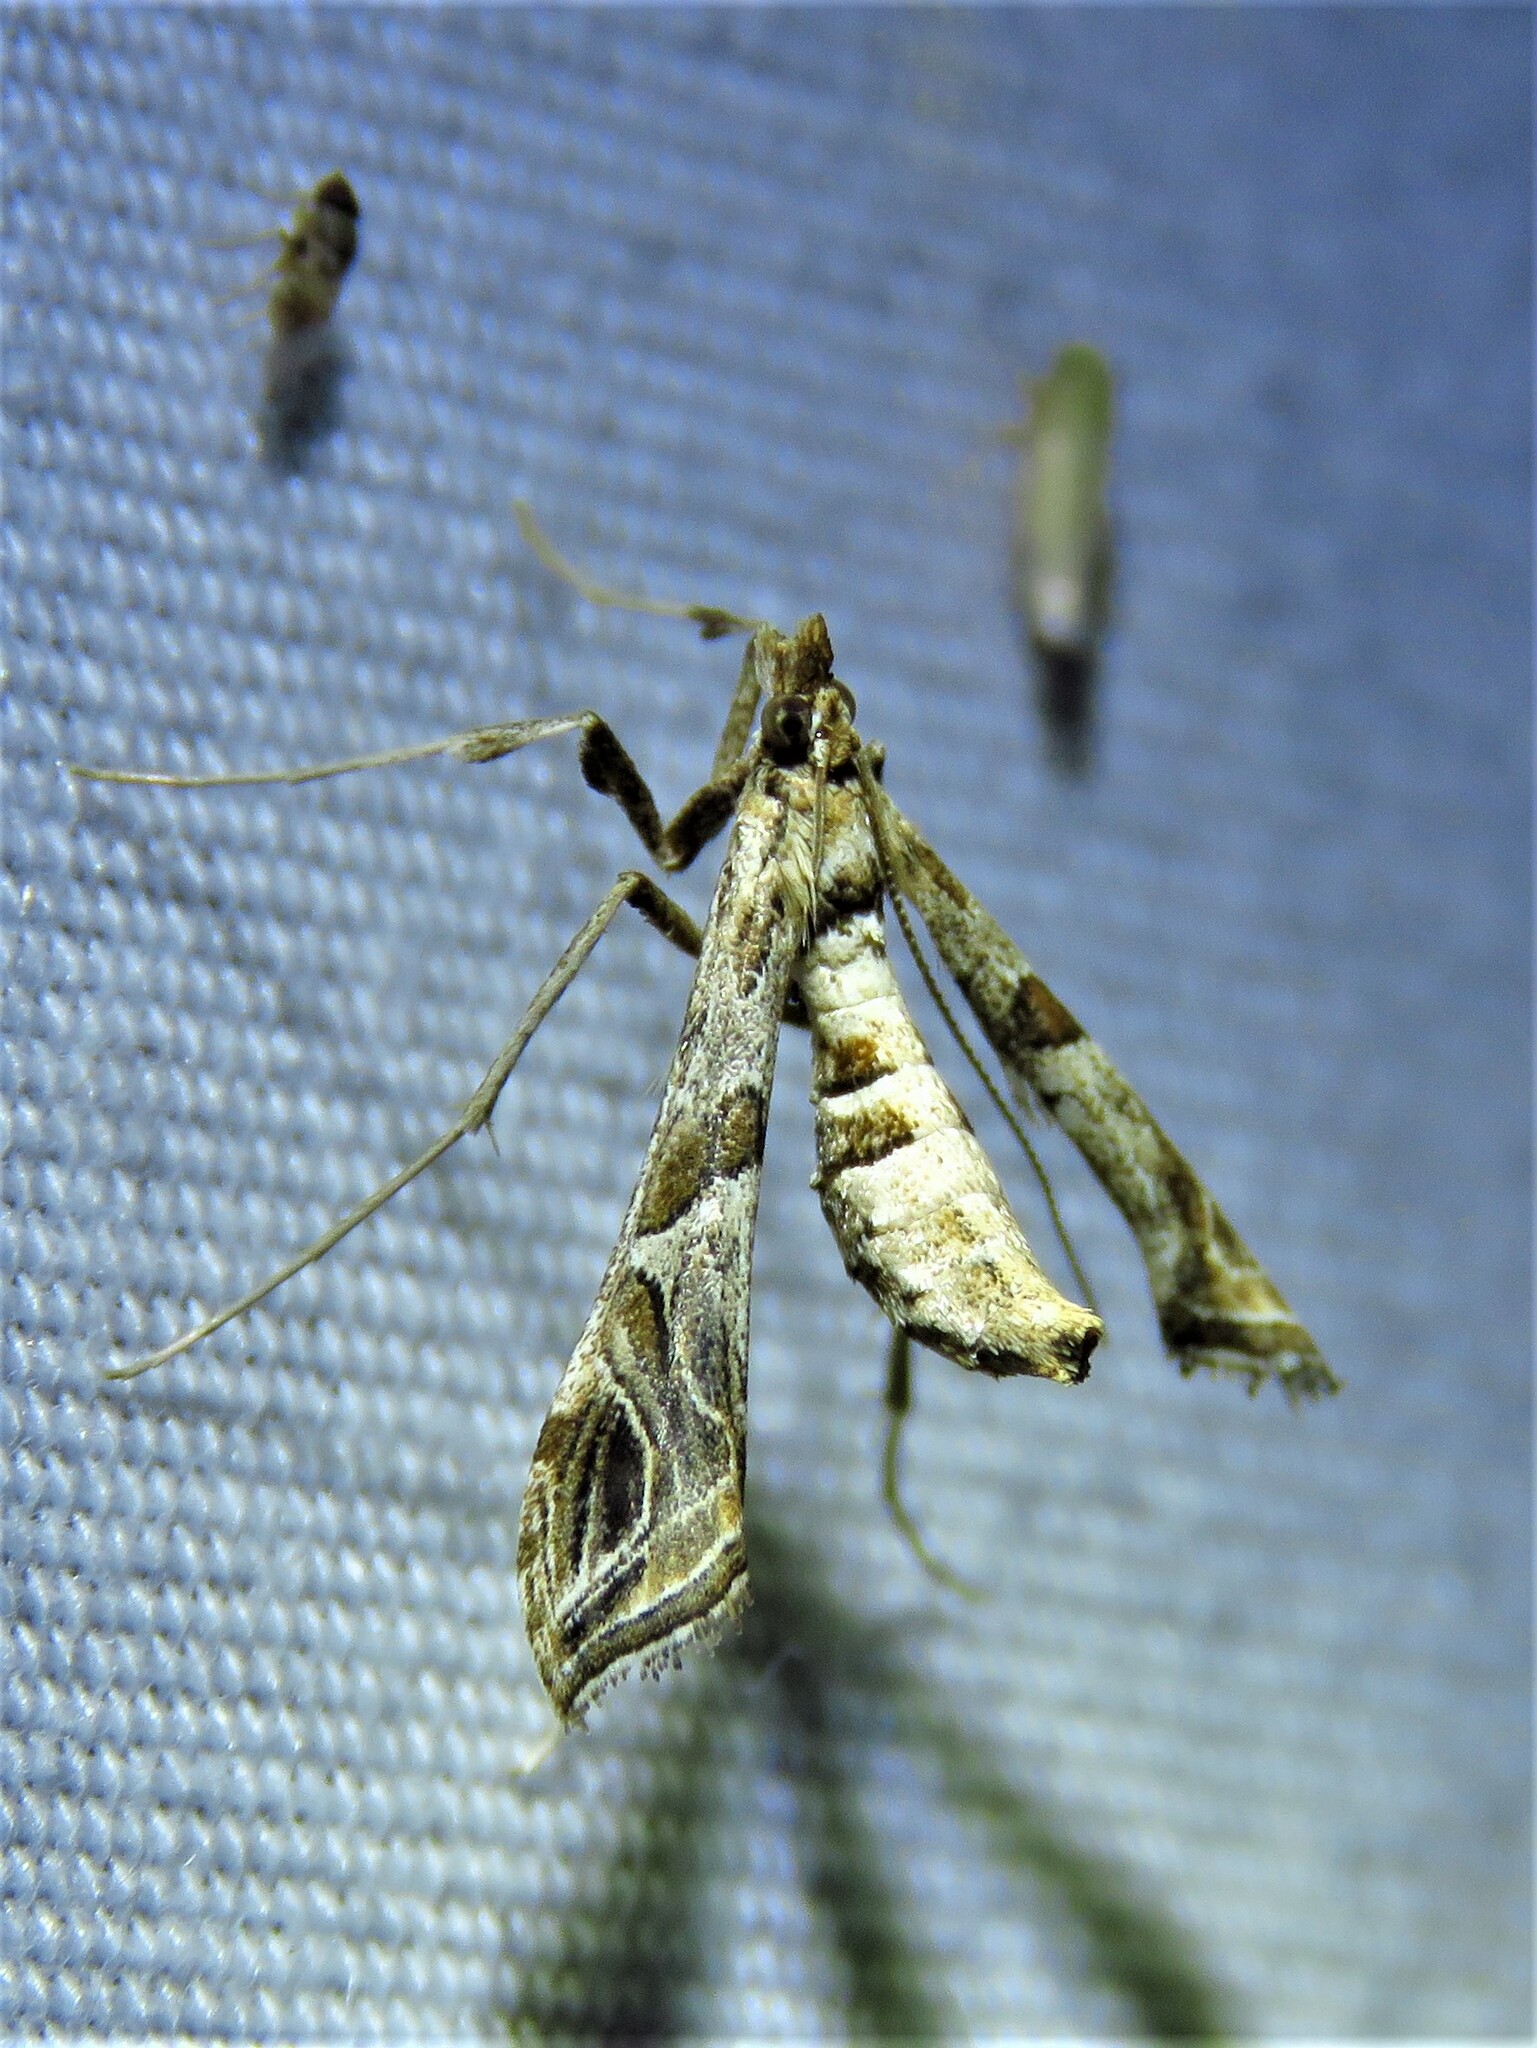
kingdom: Animalia
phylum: Arthropoda
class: Insecta
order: Lepidoptera
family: Crambidae
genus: Lineodes
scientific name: Lineodes interrupta
